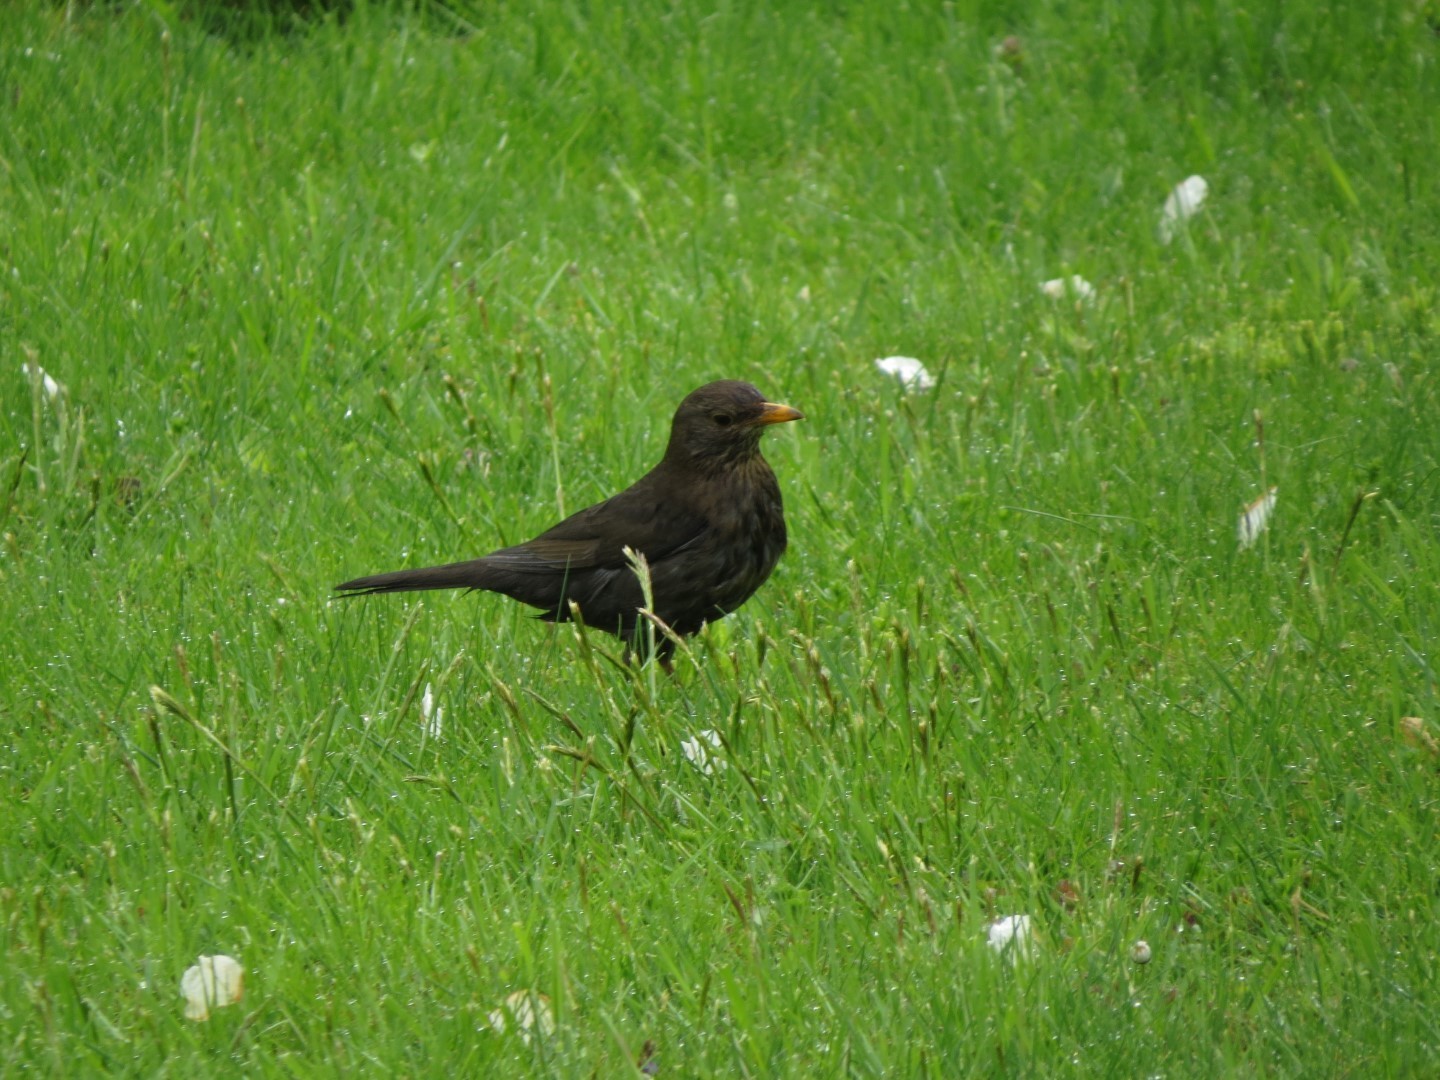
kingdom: Animalia
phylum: Chordata
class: Aves
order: Passeriformes
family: Turdidae
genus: Turdus
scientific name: Turdus merula
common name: Common blackbird
